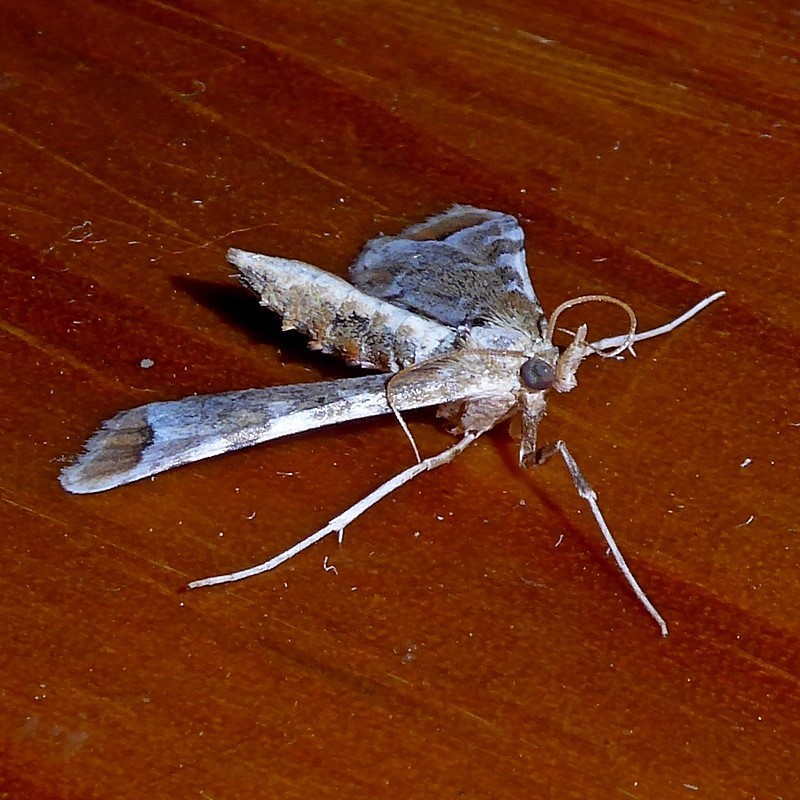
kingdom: Animalia
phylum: Arthropoda
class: Insecta
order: Lepidoptera
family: Crambidae
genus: Sceliodes
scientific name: Sceliodes cordalis
